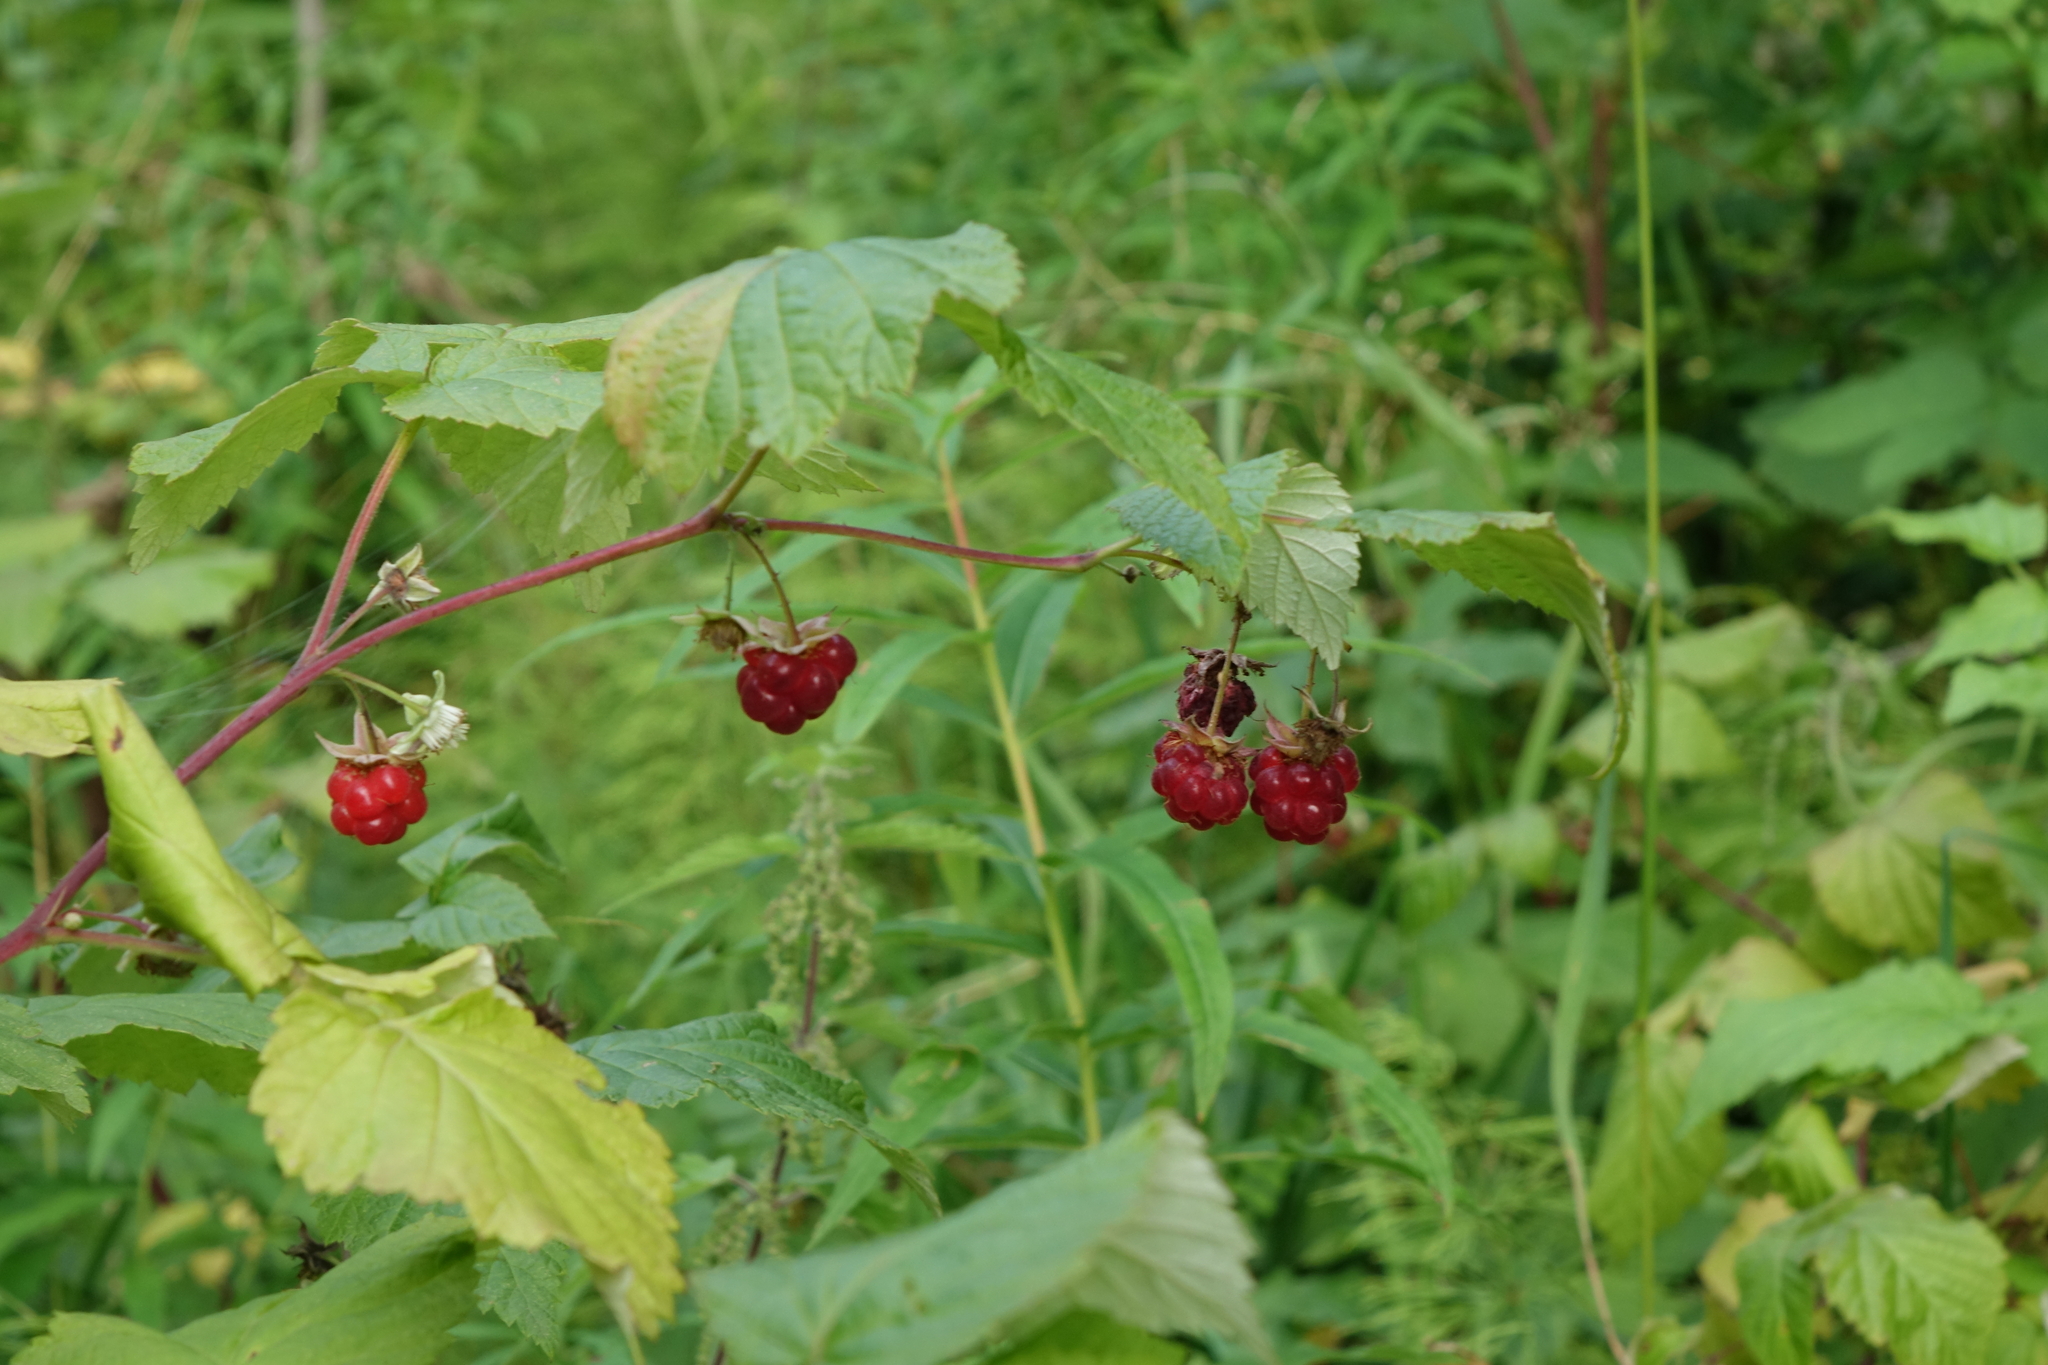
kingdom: Plantae
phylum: Tracheophyta
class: Magnoliopsida
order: Rosales
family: Rosaceae
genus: Rubus
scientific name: Rubus idaeus
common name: Raspberry
